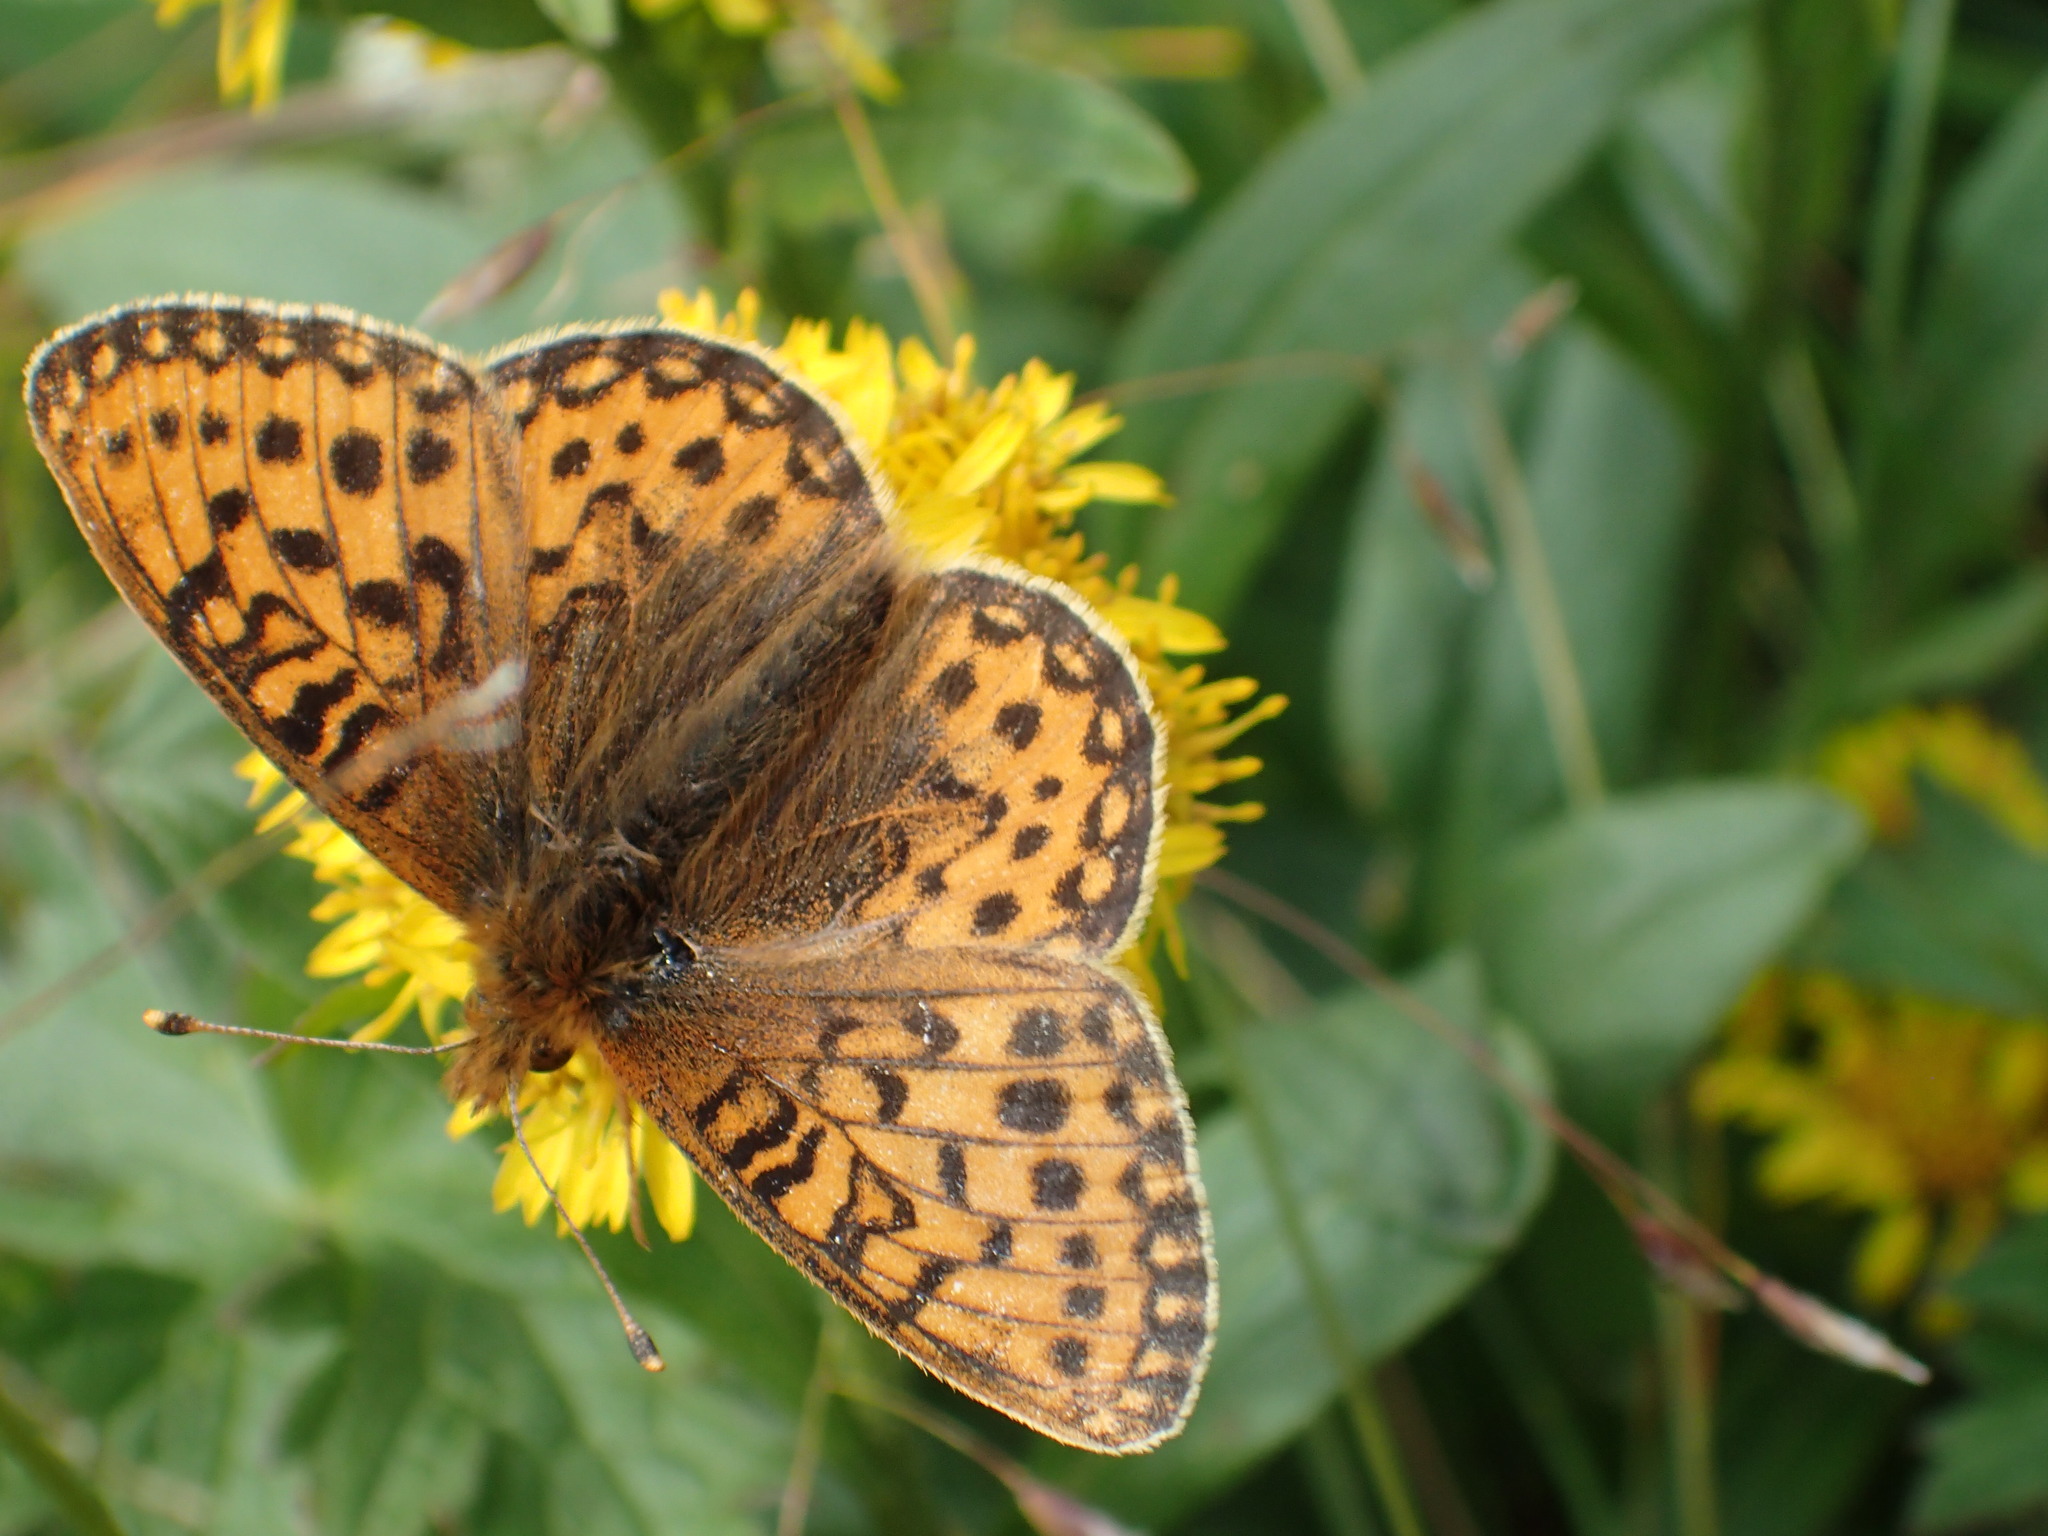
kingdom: Animalia
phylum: Arthropoda
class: Insecta
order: Lepidoptera
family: Nymphalidae
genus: Speyeria
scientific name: Speyeria mormonia
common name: Mormon fritillary
